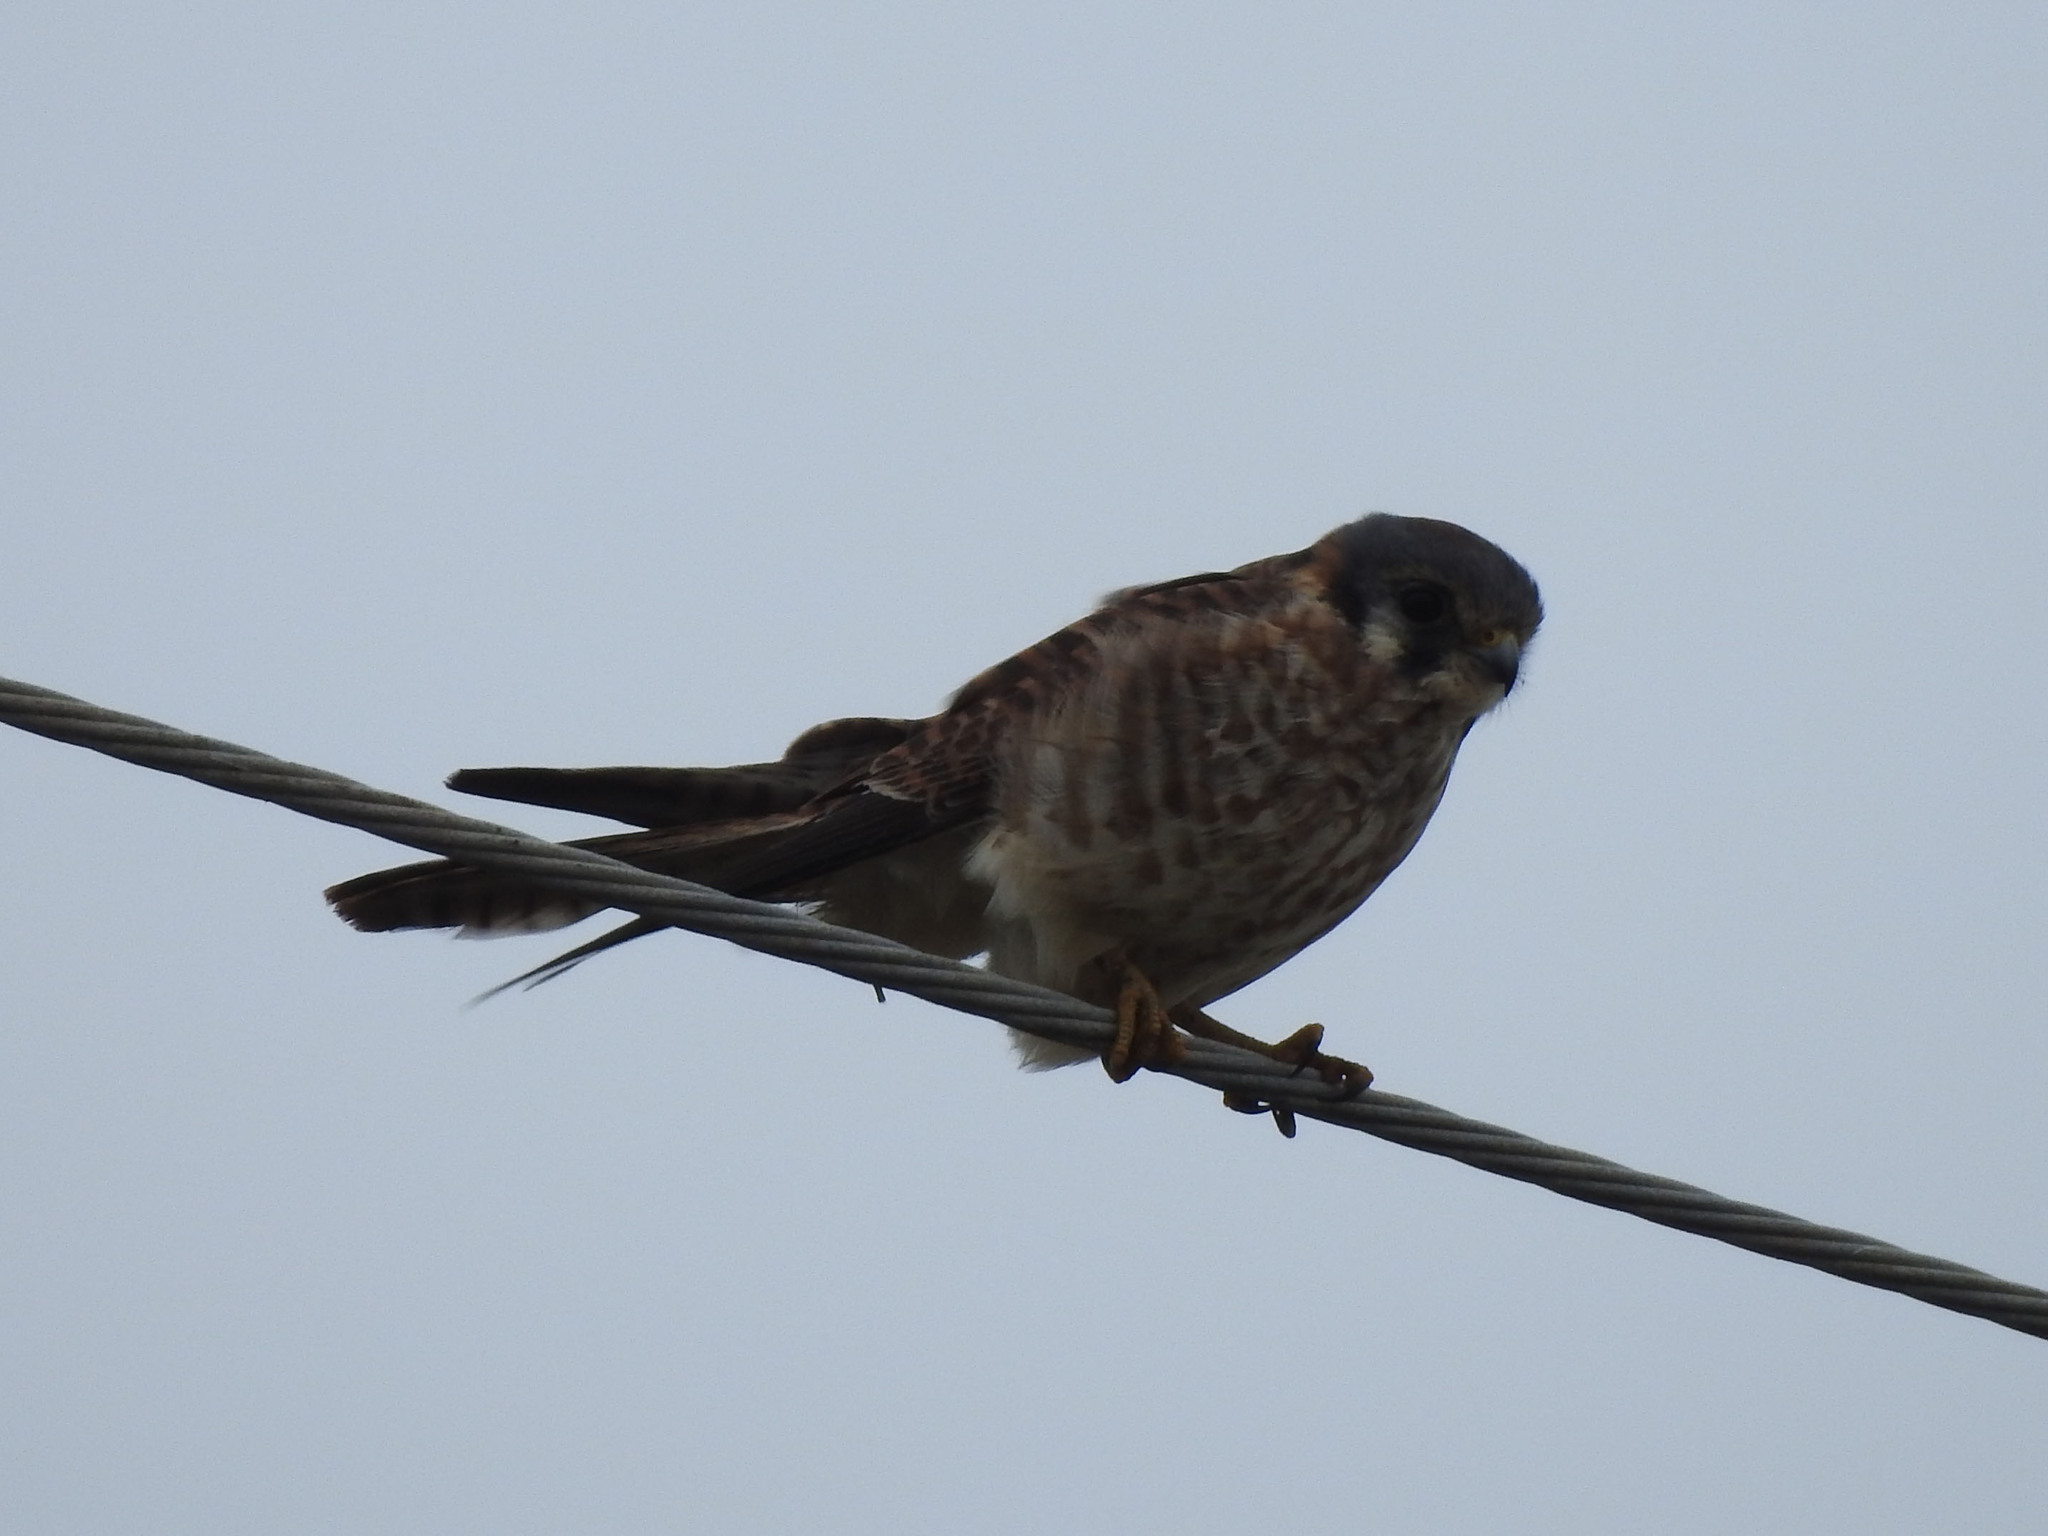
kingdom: Animalia
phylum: Chordata
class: Aves
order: Falconiformes
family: Falconidae
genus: Falco
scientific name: Falco sparverius
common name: American kestrel
